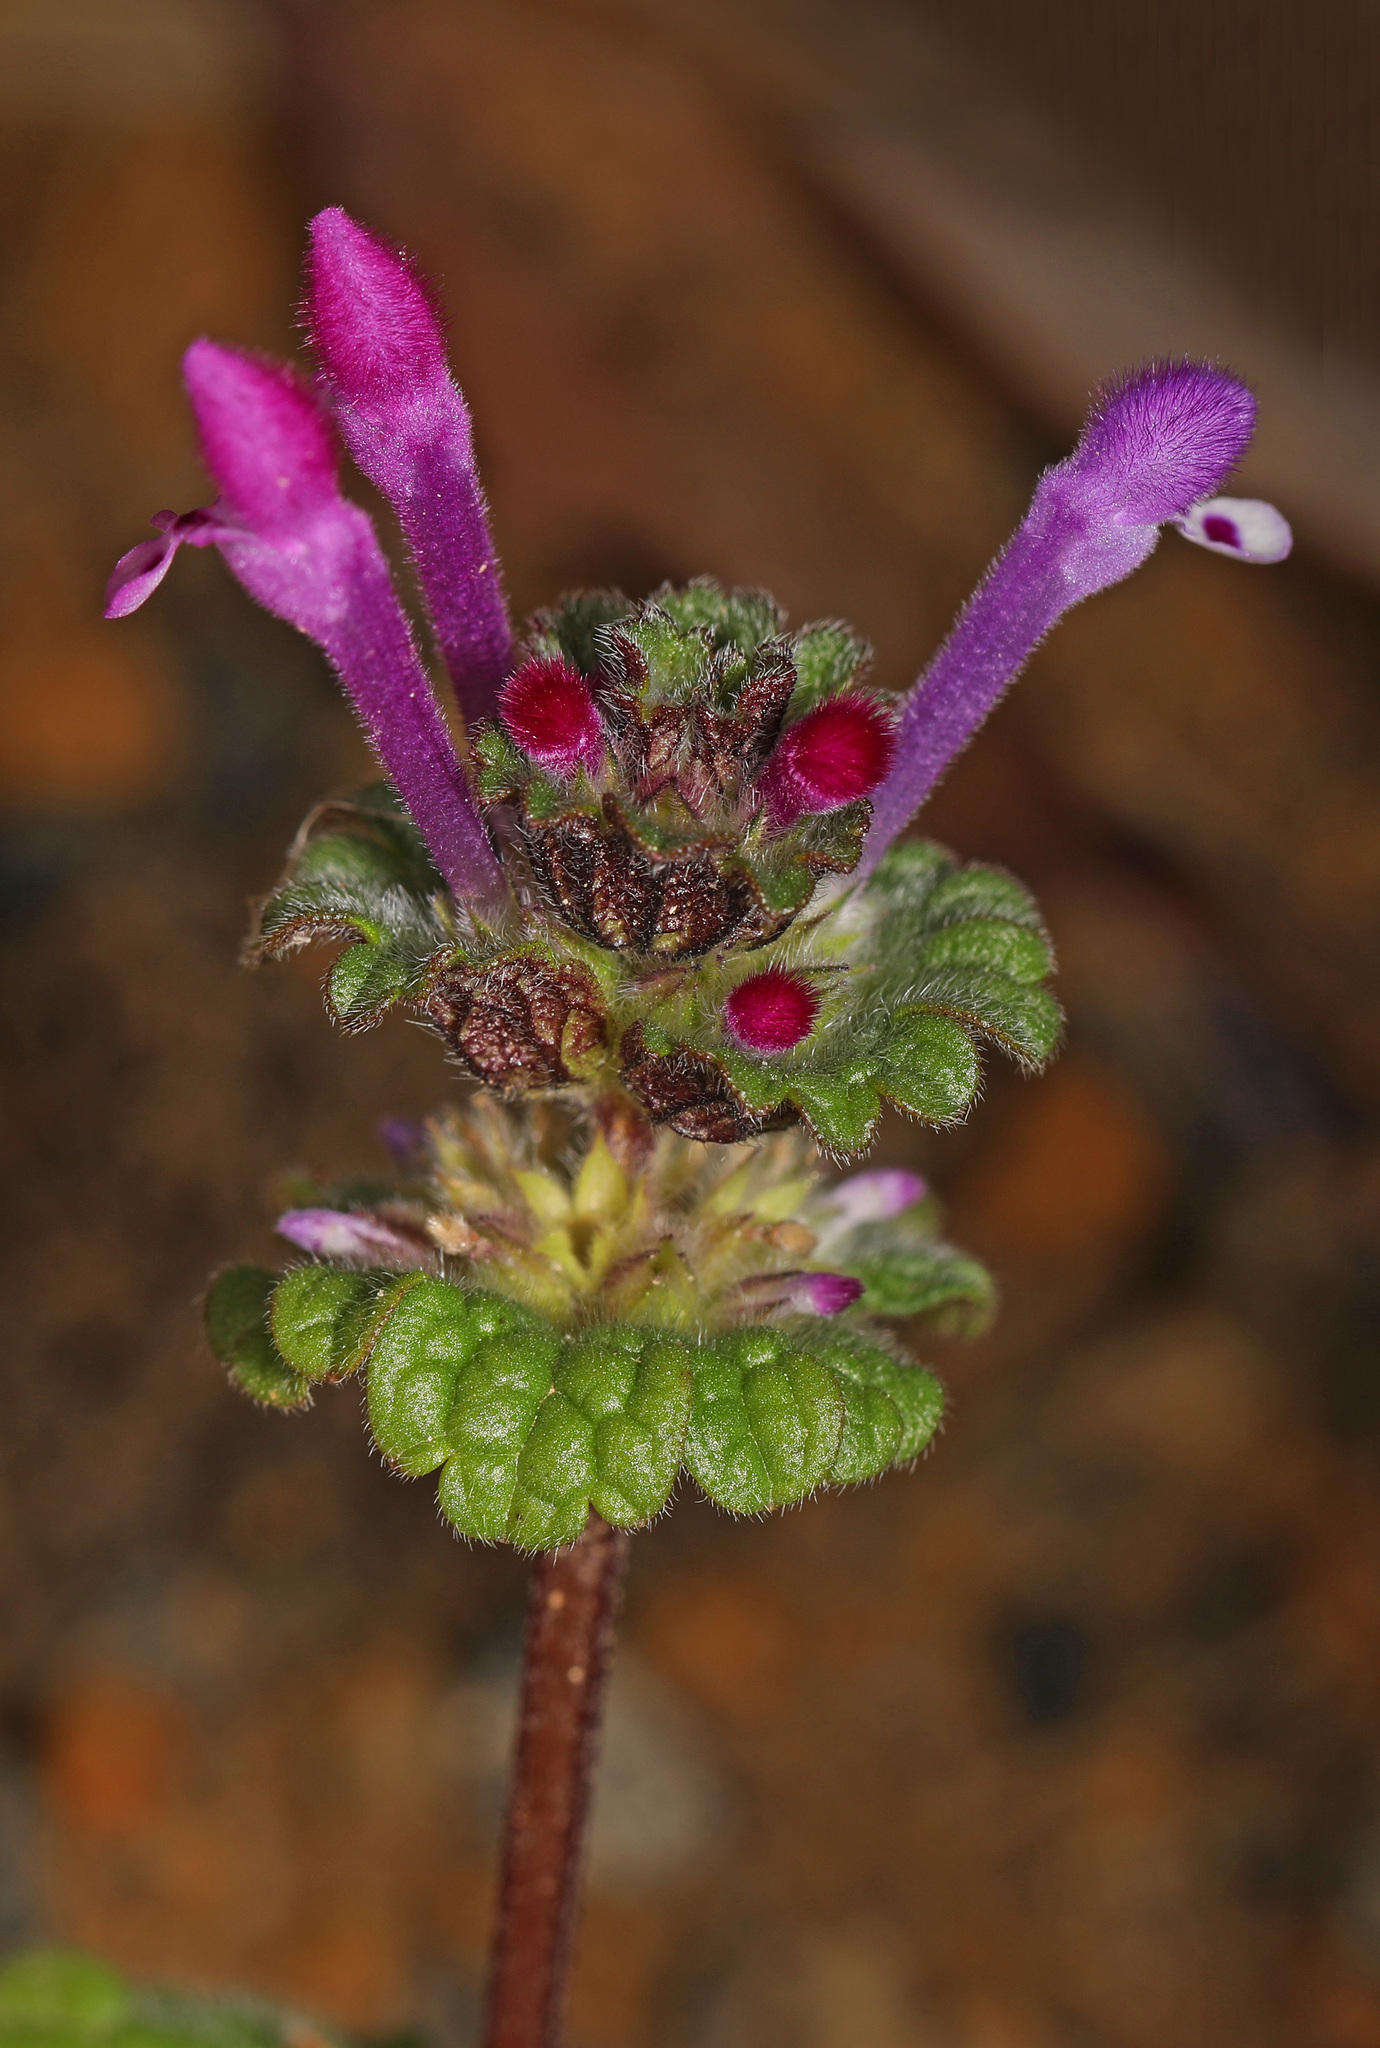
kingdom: Plantae
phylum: Tracheophyta
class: Magnoliopsida
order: Lamiales
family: Lamiaceae
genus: Lamium
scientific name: Lamium amplexicaule
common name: Henbit dead-nettle
